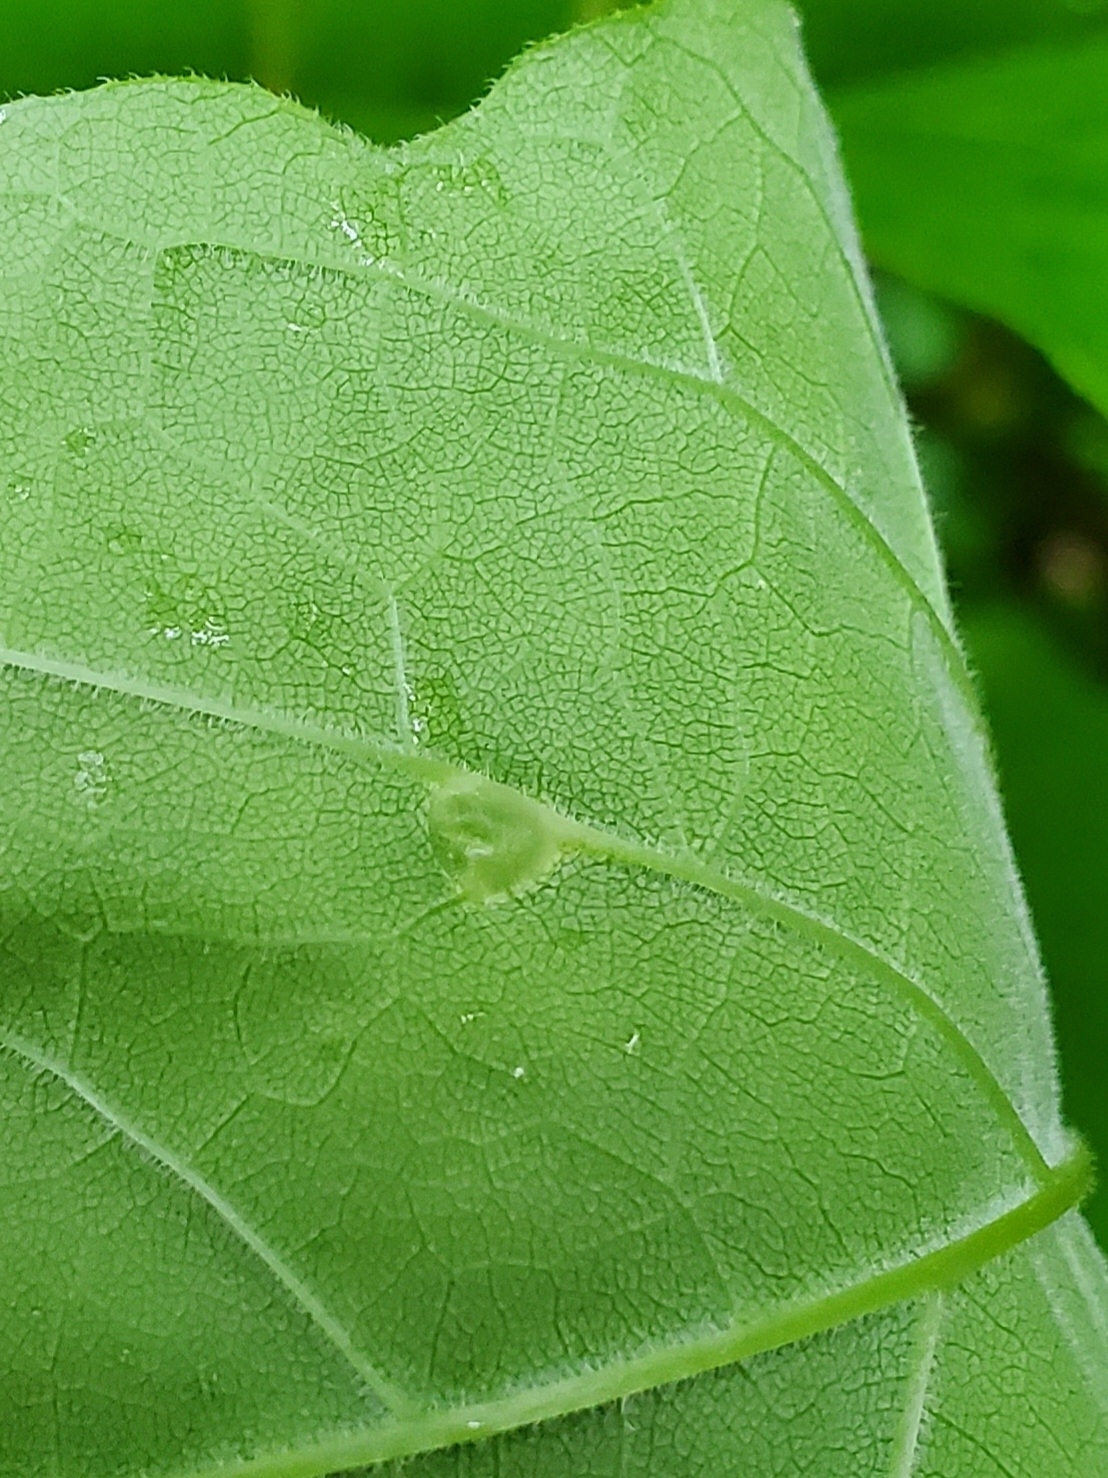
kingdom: Animalia
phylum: Arthropoda
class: Insecta
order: Diptera
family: Cecidomyiidae
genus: Dasineura
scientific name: Dasineura pellex
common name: Ash bullet gall midge
